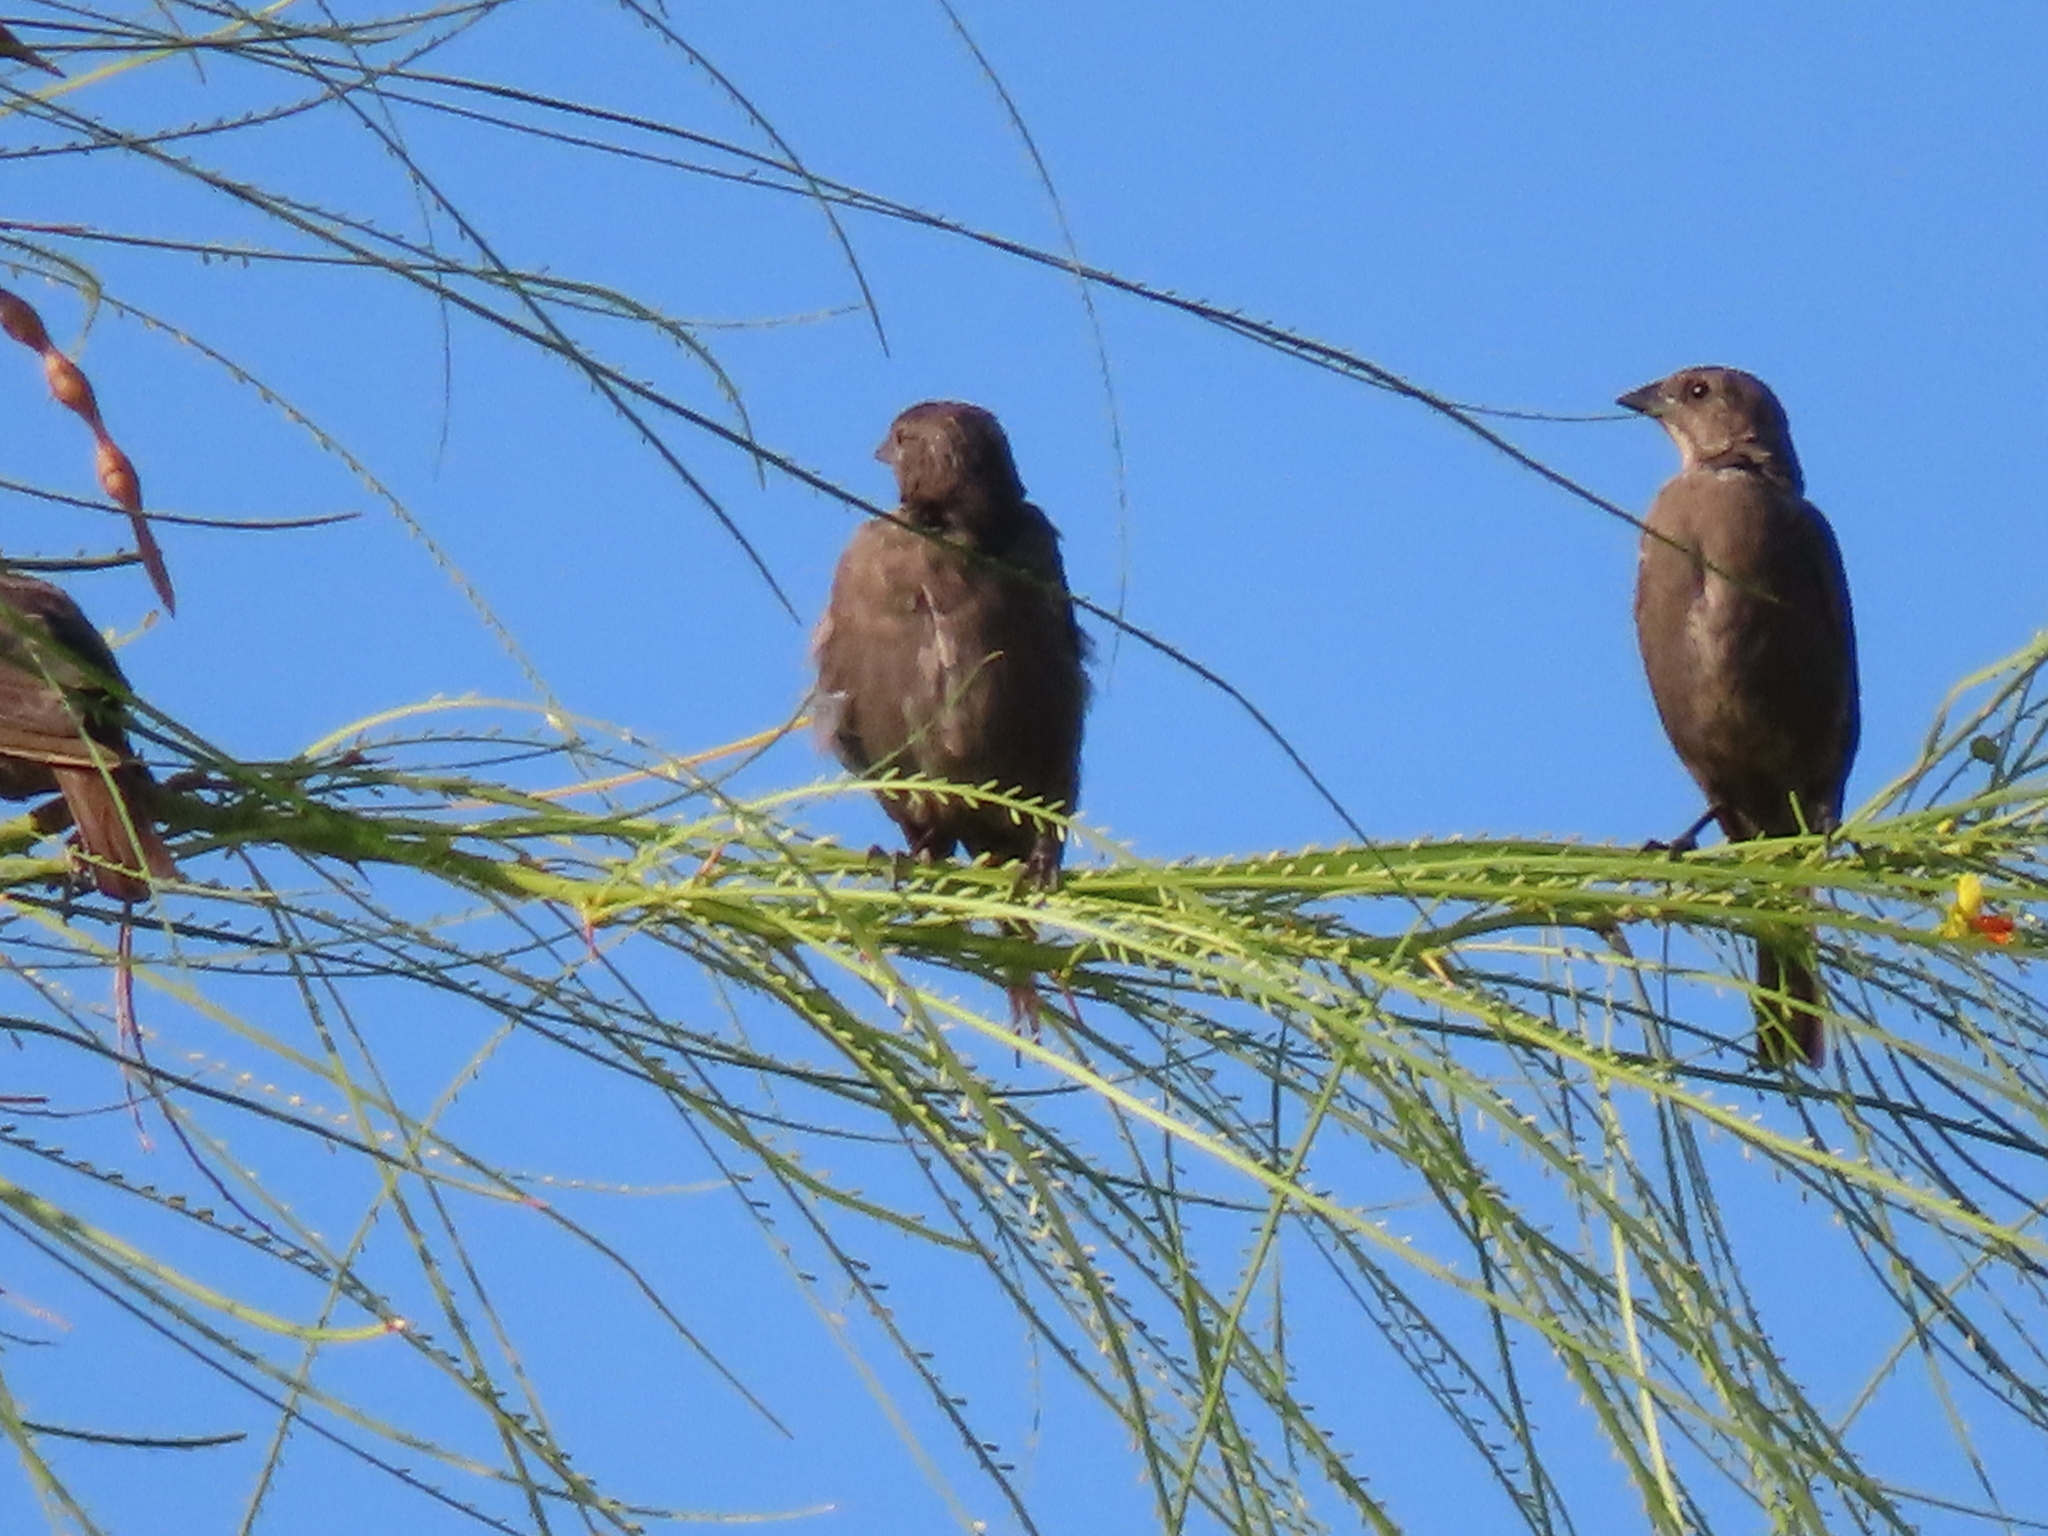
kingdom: Animalia
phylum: Chordata
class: Aves
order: Passeriformes
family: Icteridae
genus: Molothrus
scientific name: Molothrus aeneus
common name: Bronzed cowbird
